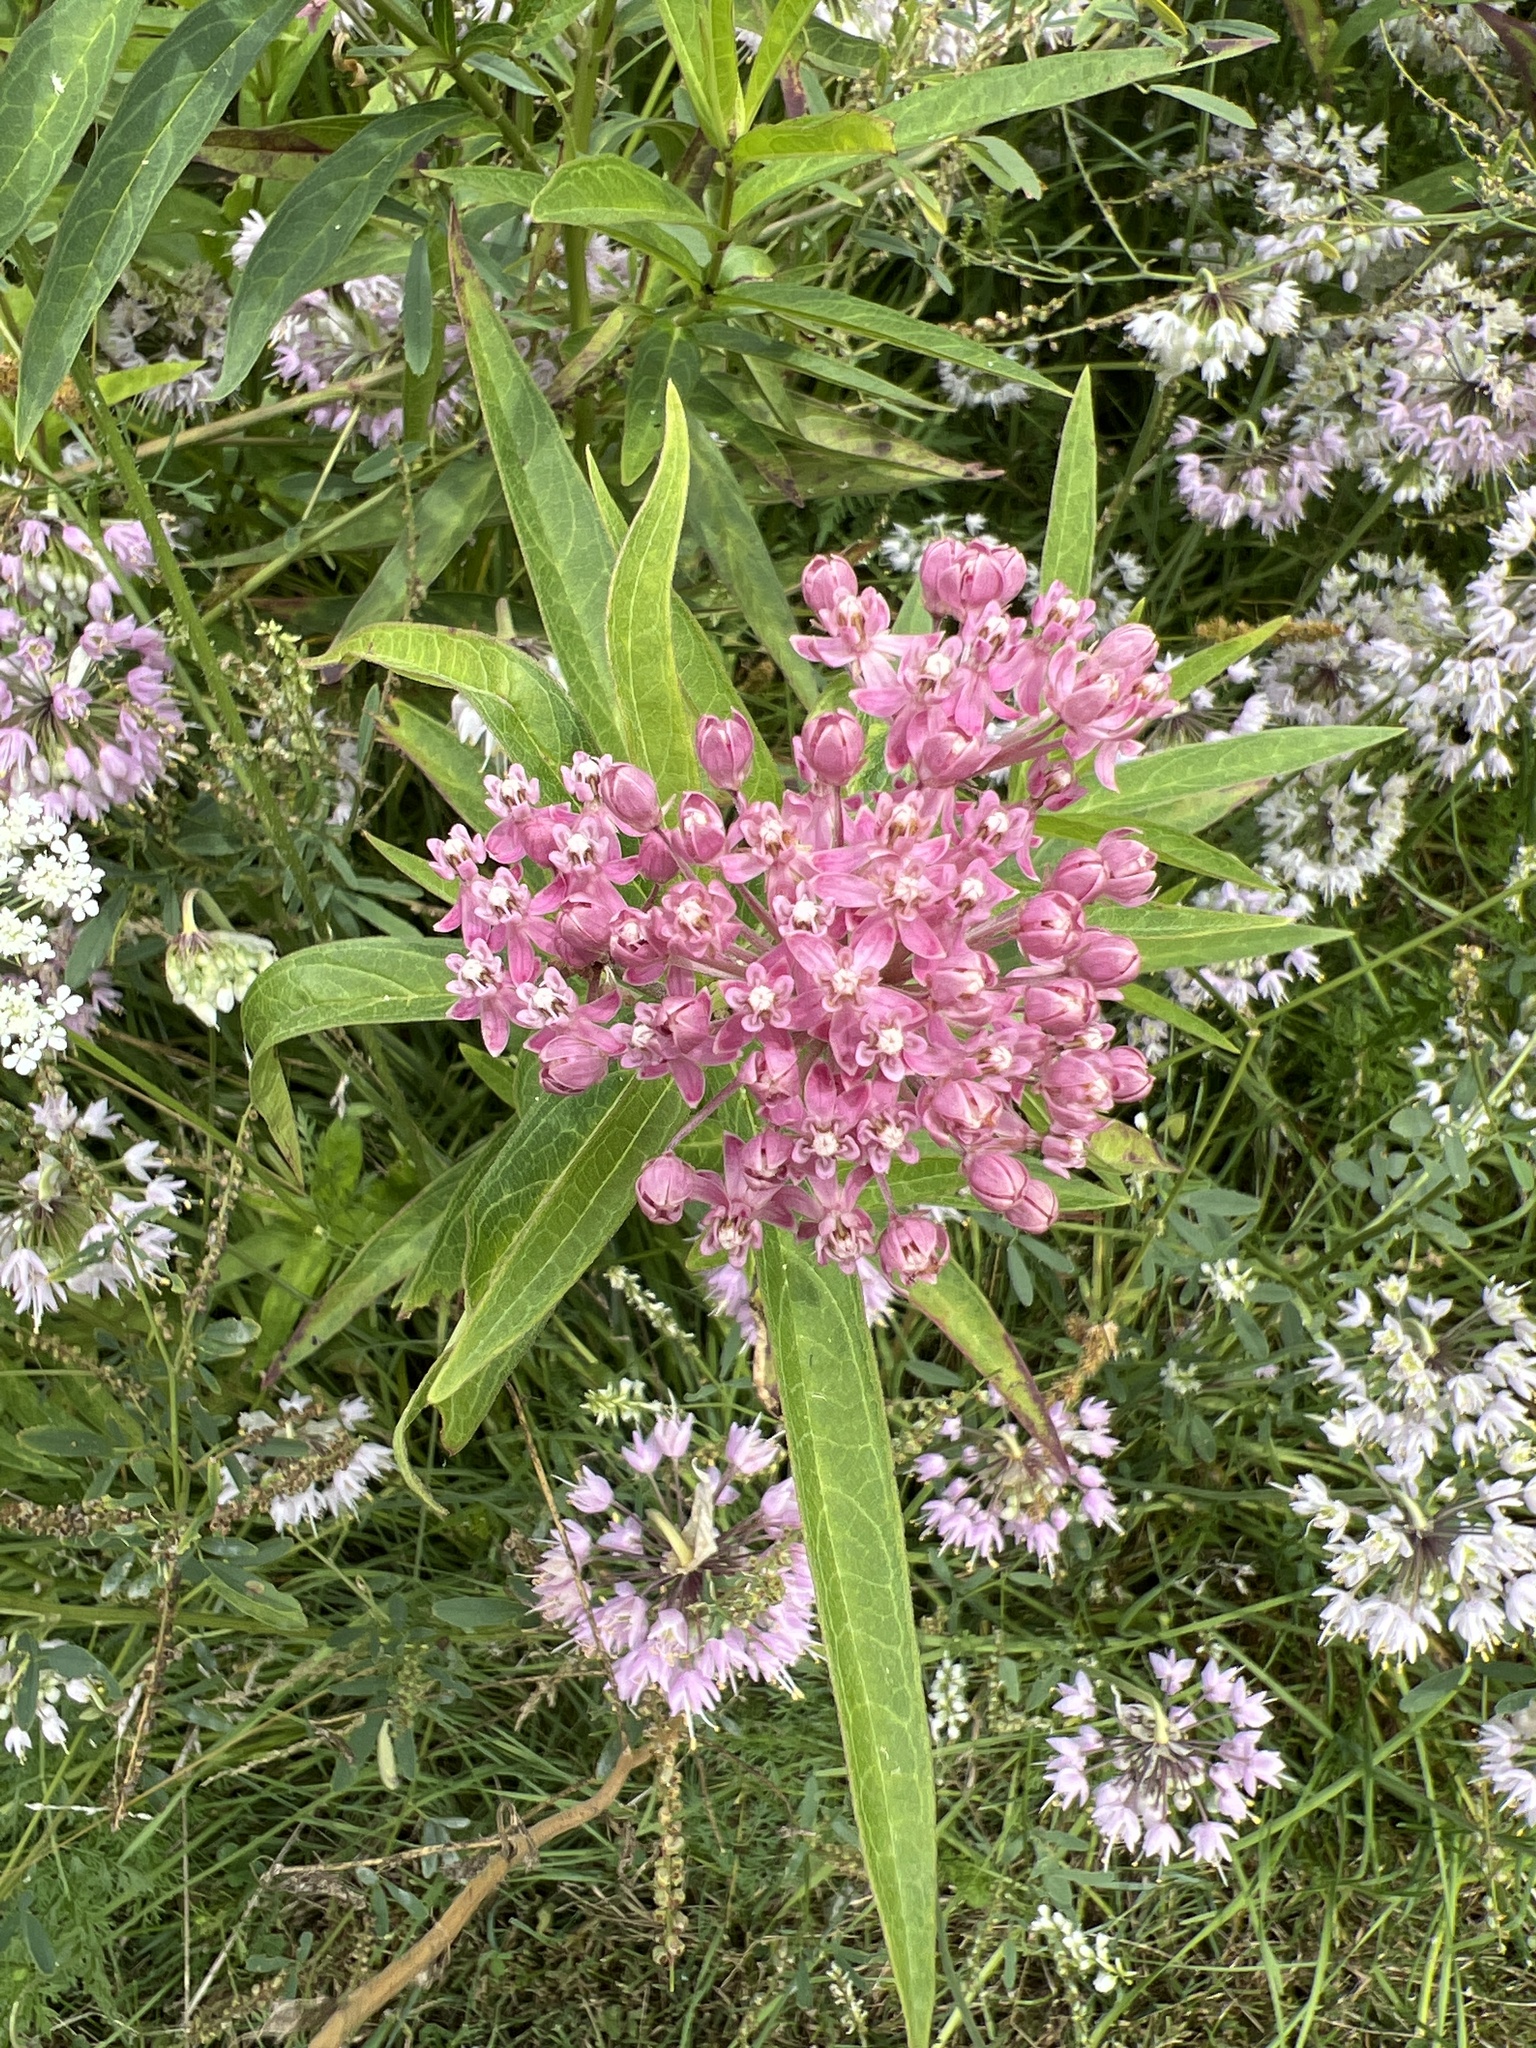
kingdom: Plantae
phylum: Tracheophyta
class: Magnoliopsida
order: Gentianales
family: Apocynaceae
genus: Asclepias
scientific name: Asclepias incarnata
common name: Swamp milkweed
